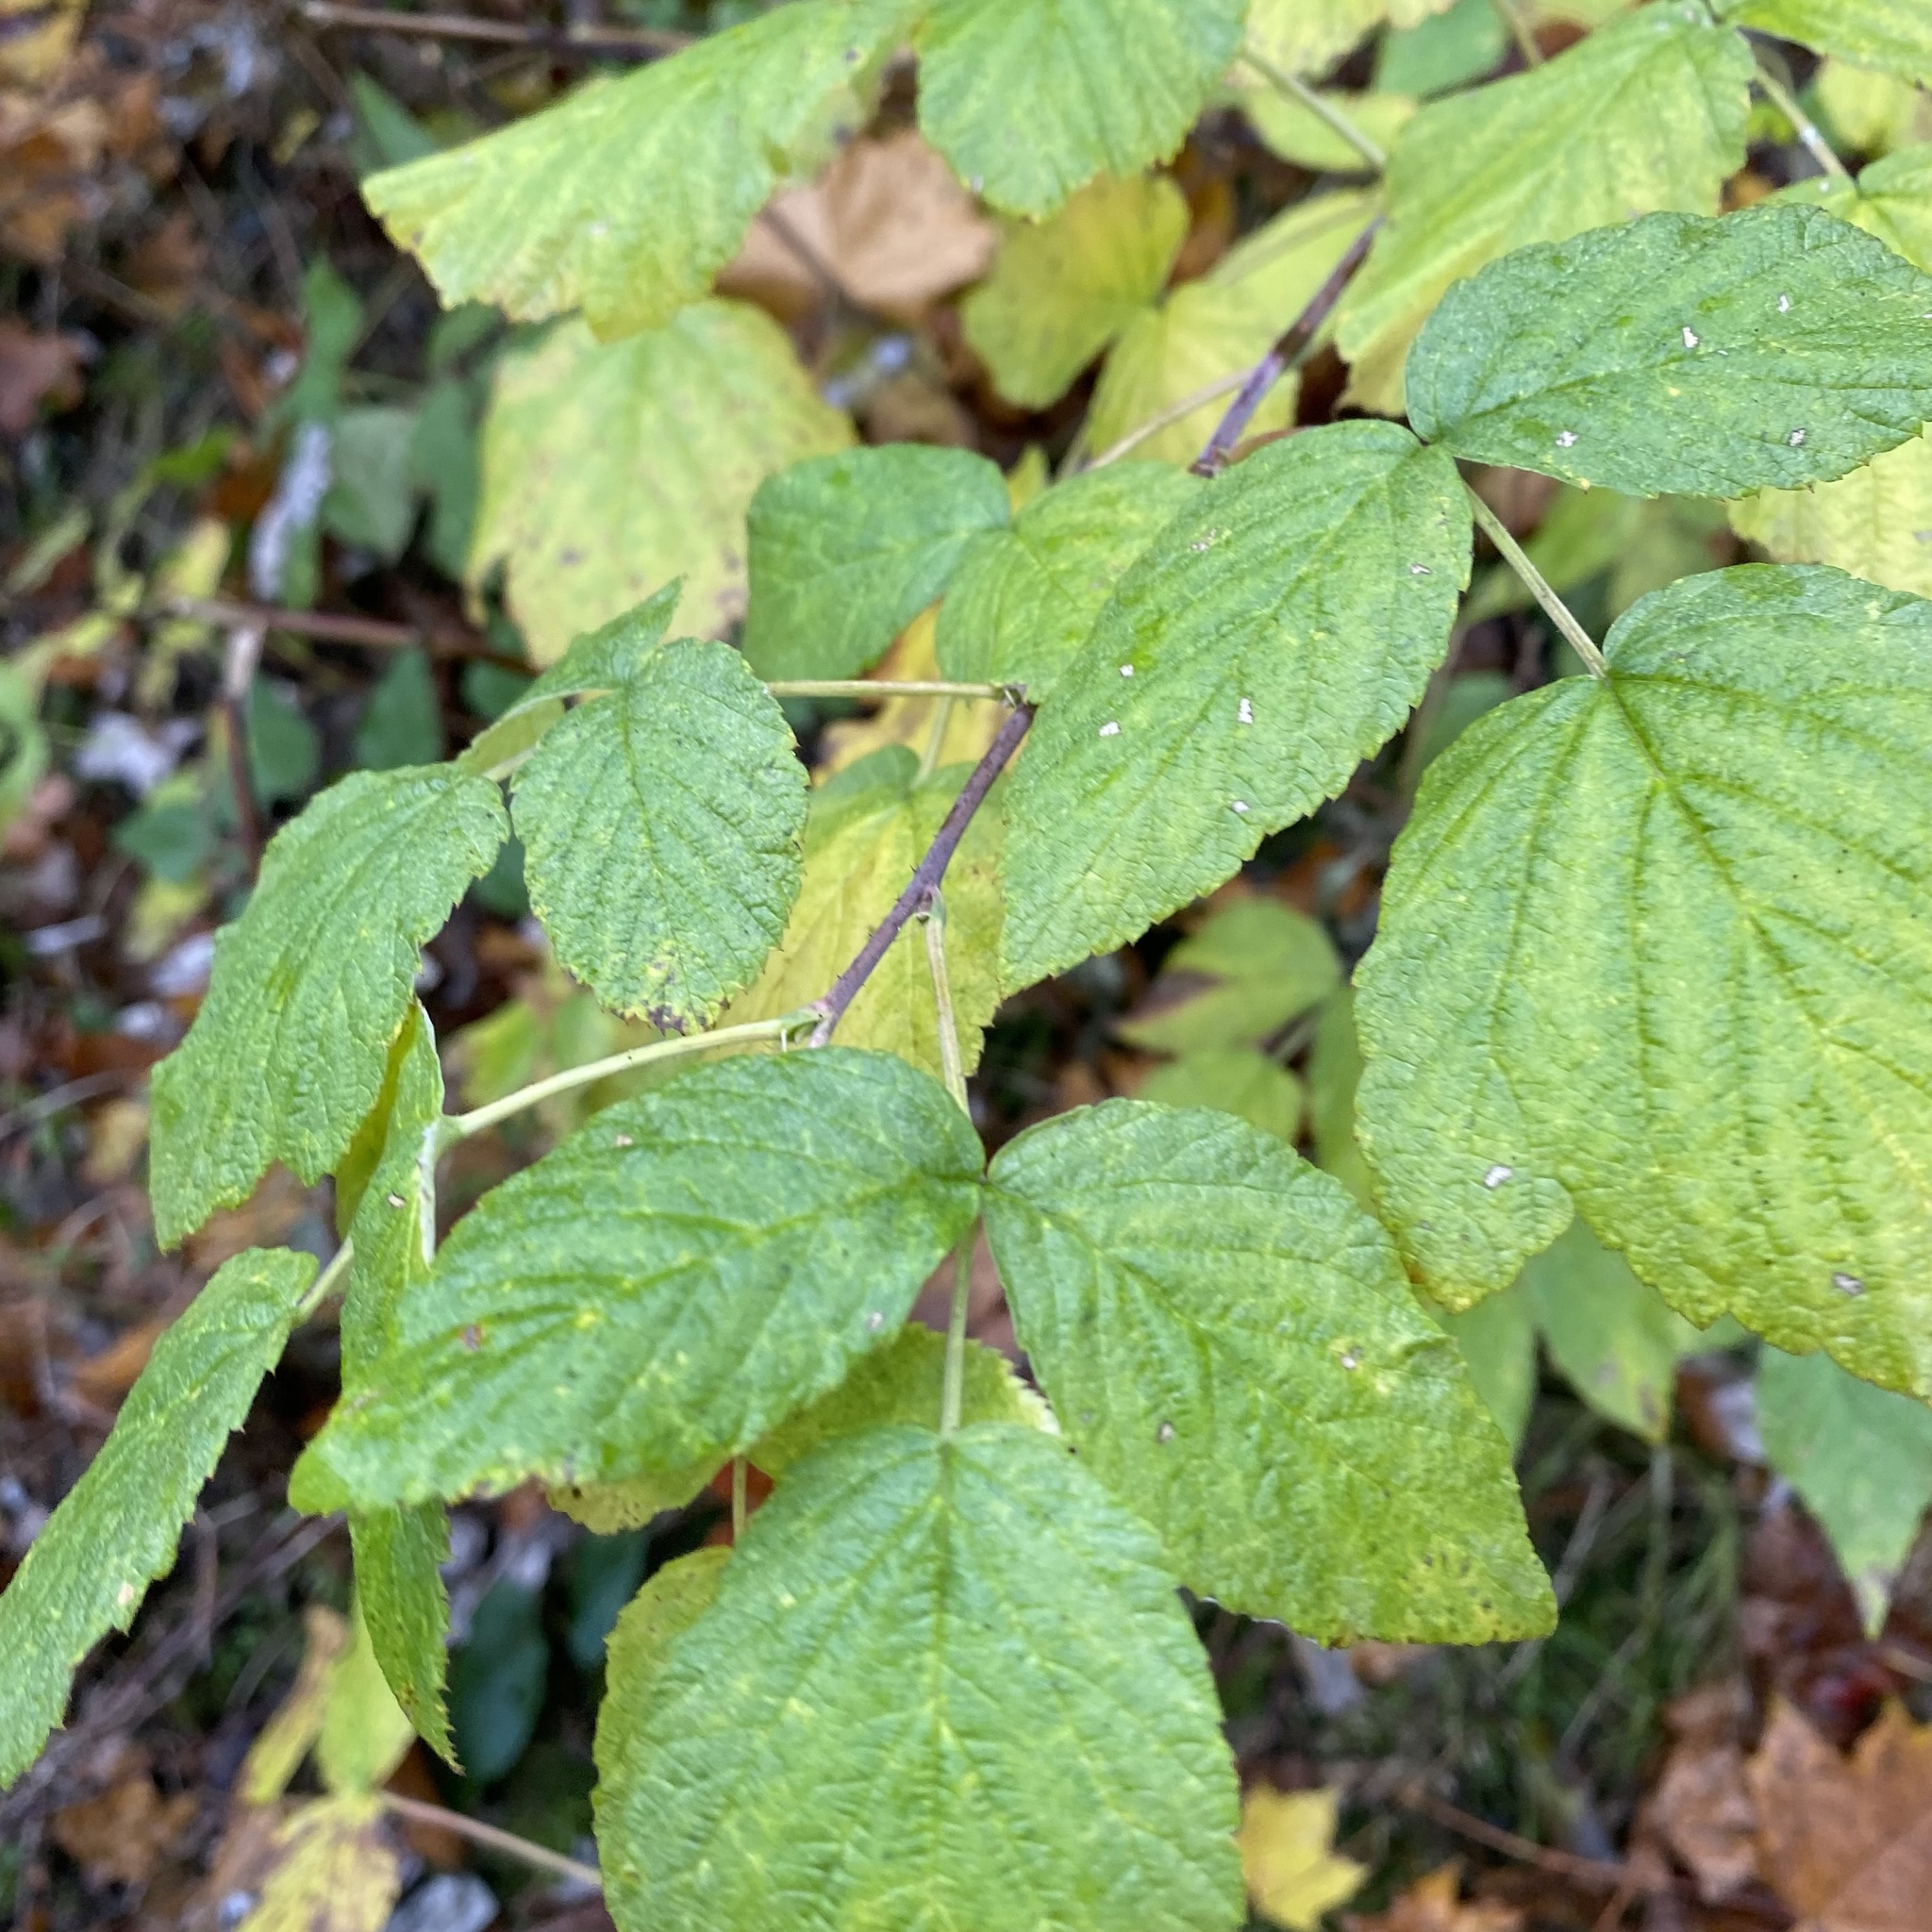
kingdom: Plantae
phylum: Tracheophyta
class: Magnoliopsida
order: Rosales
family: Rosaceae
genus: Rubus
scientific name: Rubus idaeus
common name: Raspberry
